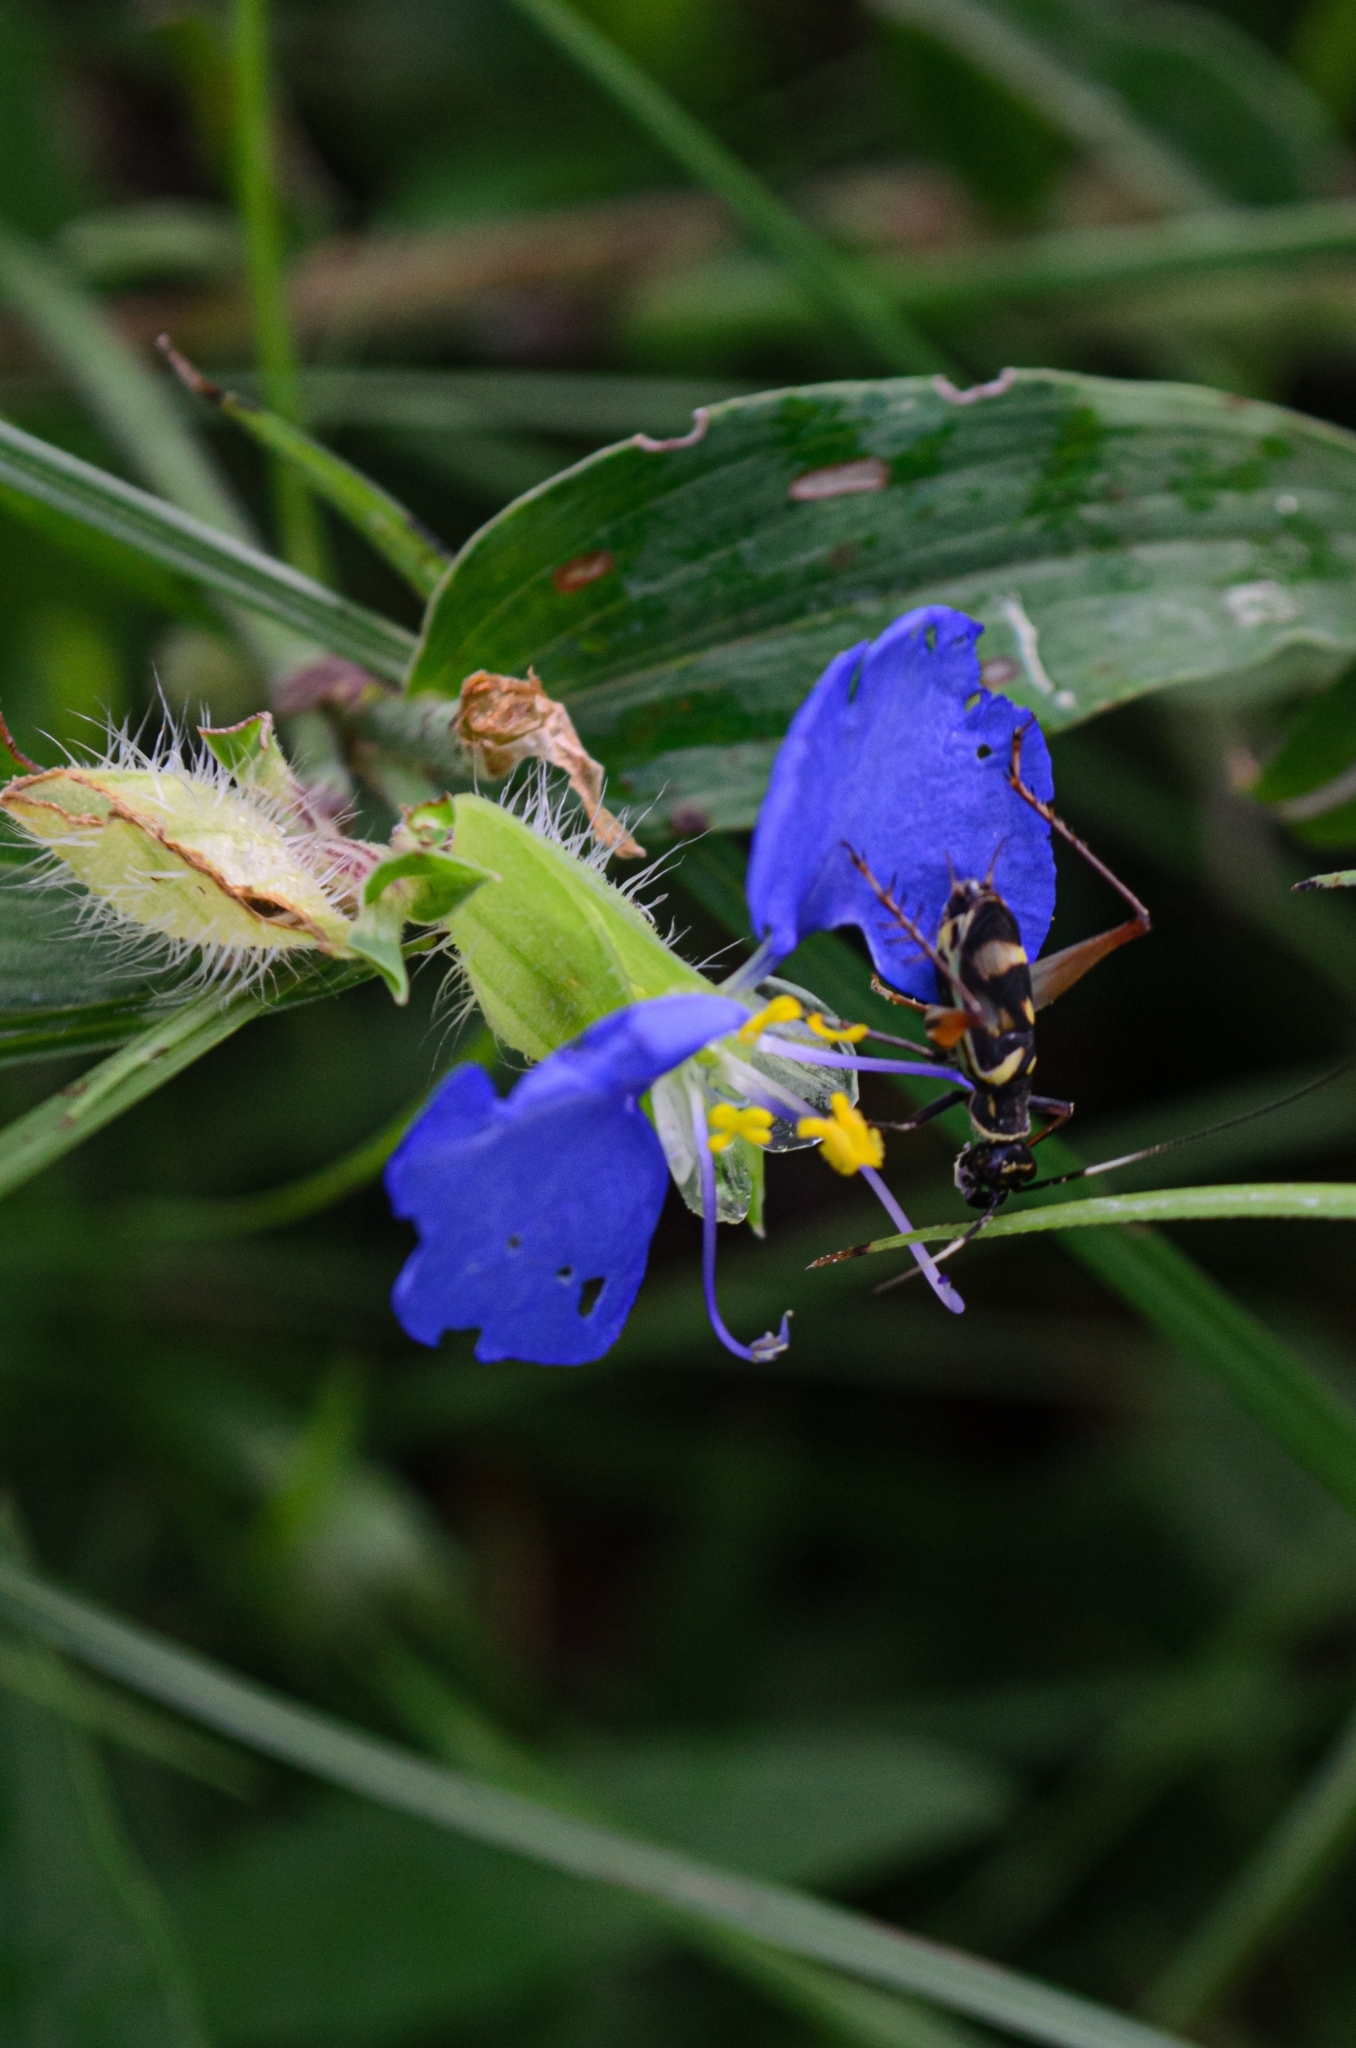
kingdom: Animalia
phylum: Arthropoda
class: Insecta
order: Orthoptera
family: Trigonidiidae
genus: Phylloscyrtus
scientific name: Phylloscyrtus amoenus
